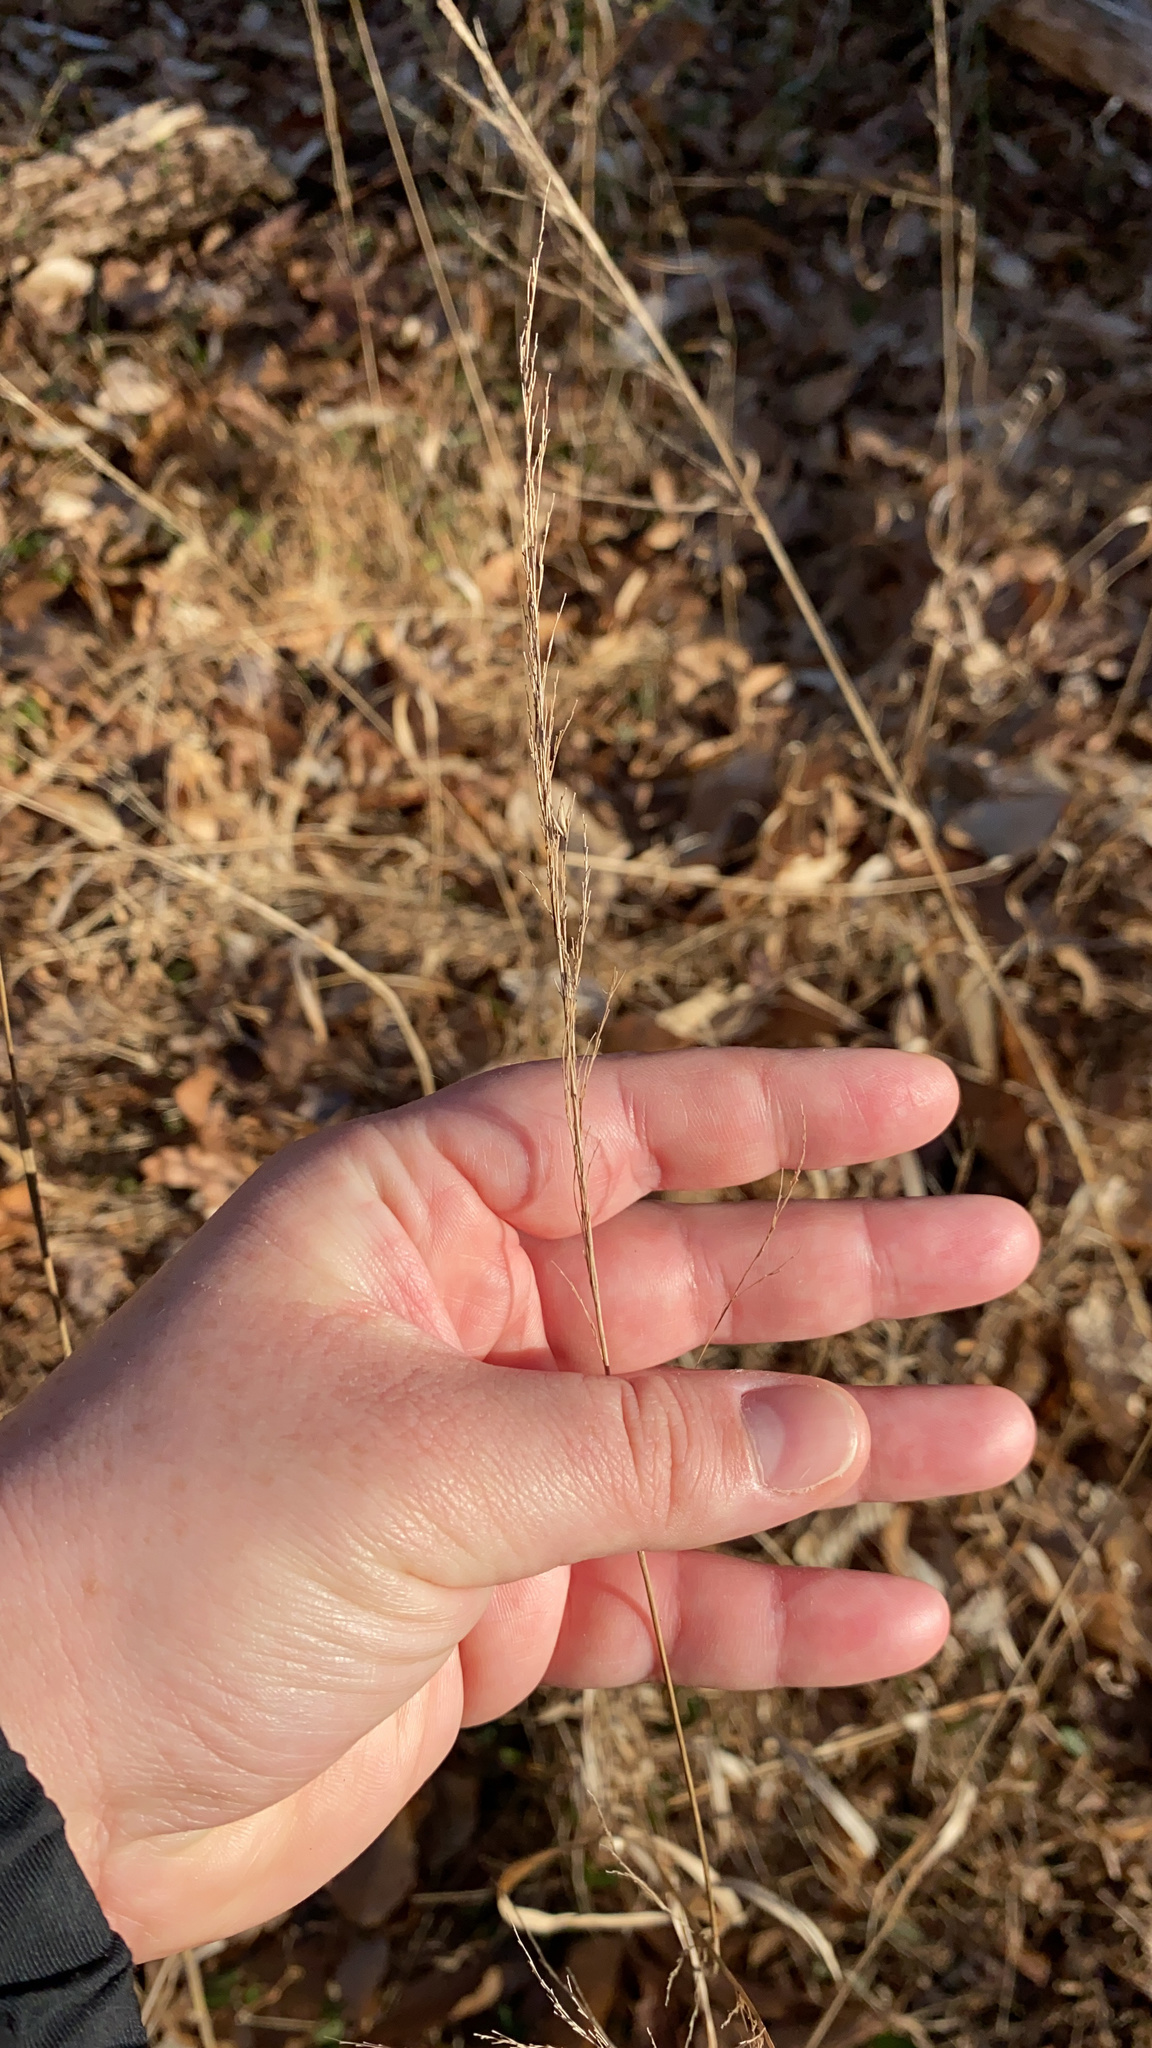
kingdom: Plantae
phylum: Tracheophyta
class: Liliopsida
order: Poales
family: Poaceae
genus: Cinna
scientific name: Cinna arundinacea
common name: Stout woodreed
